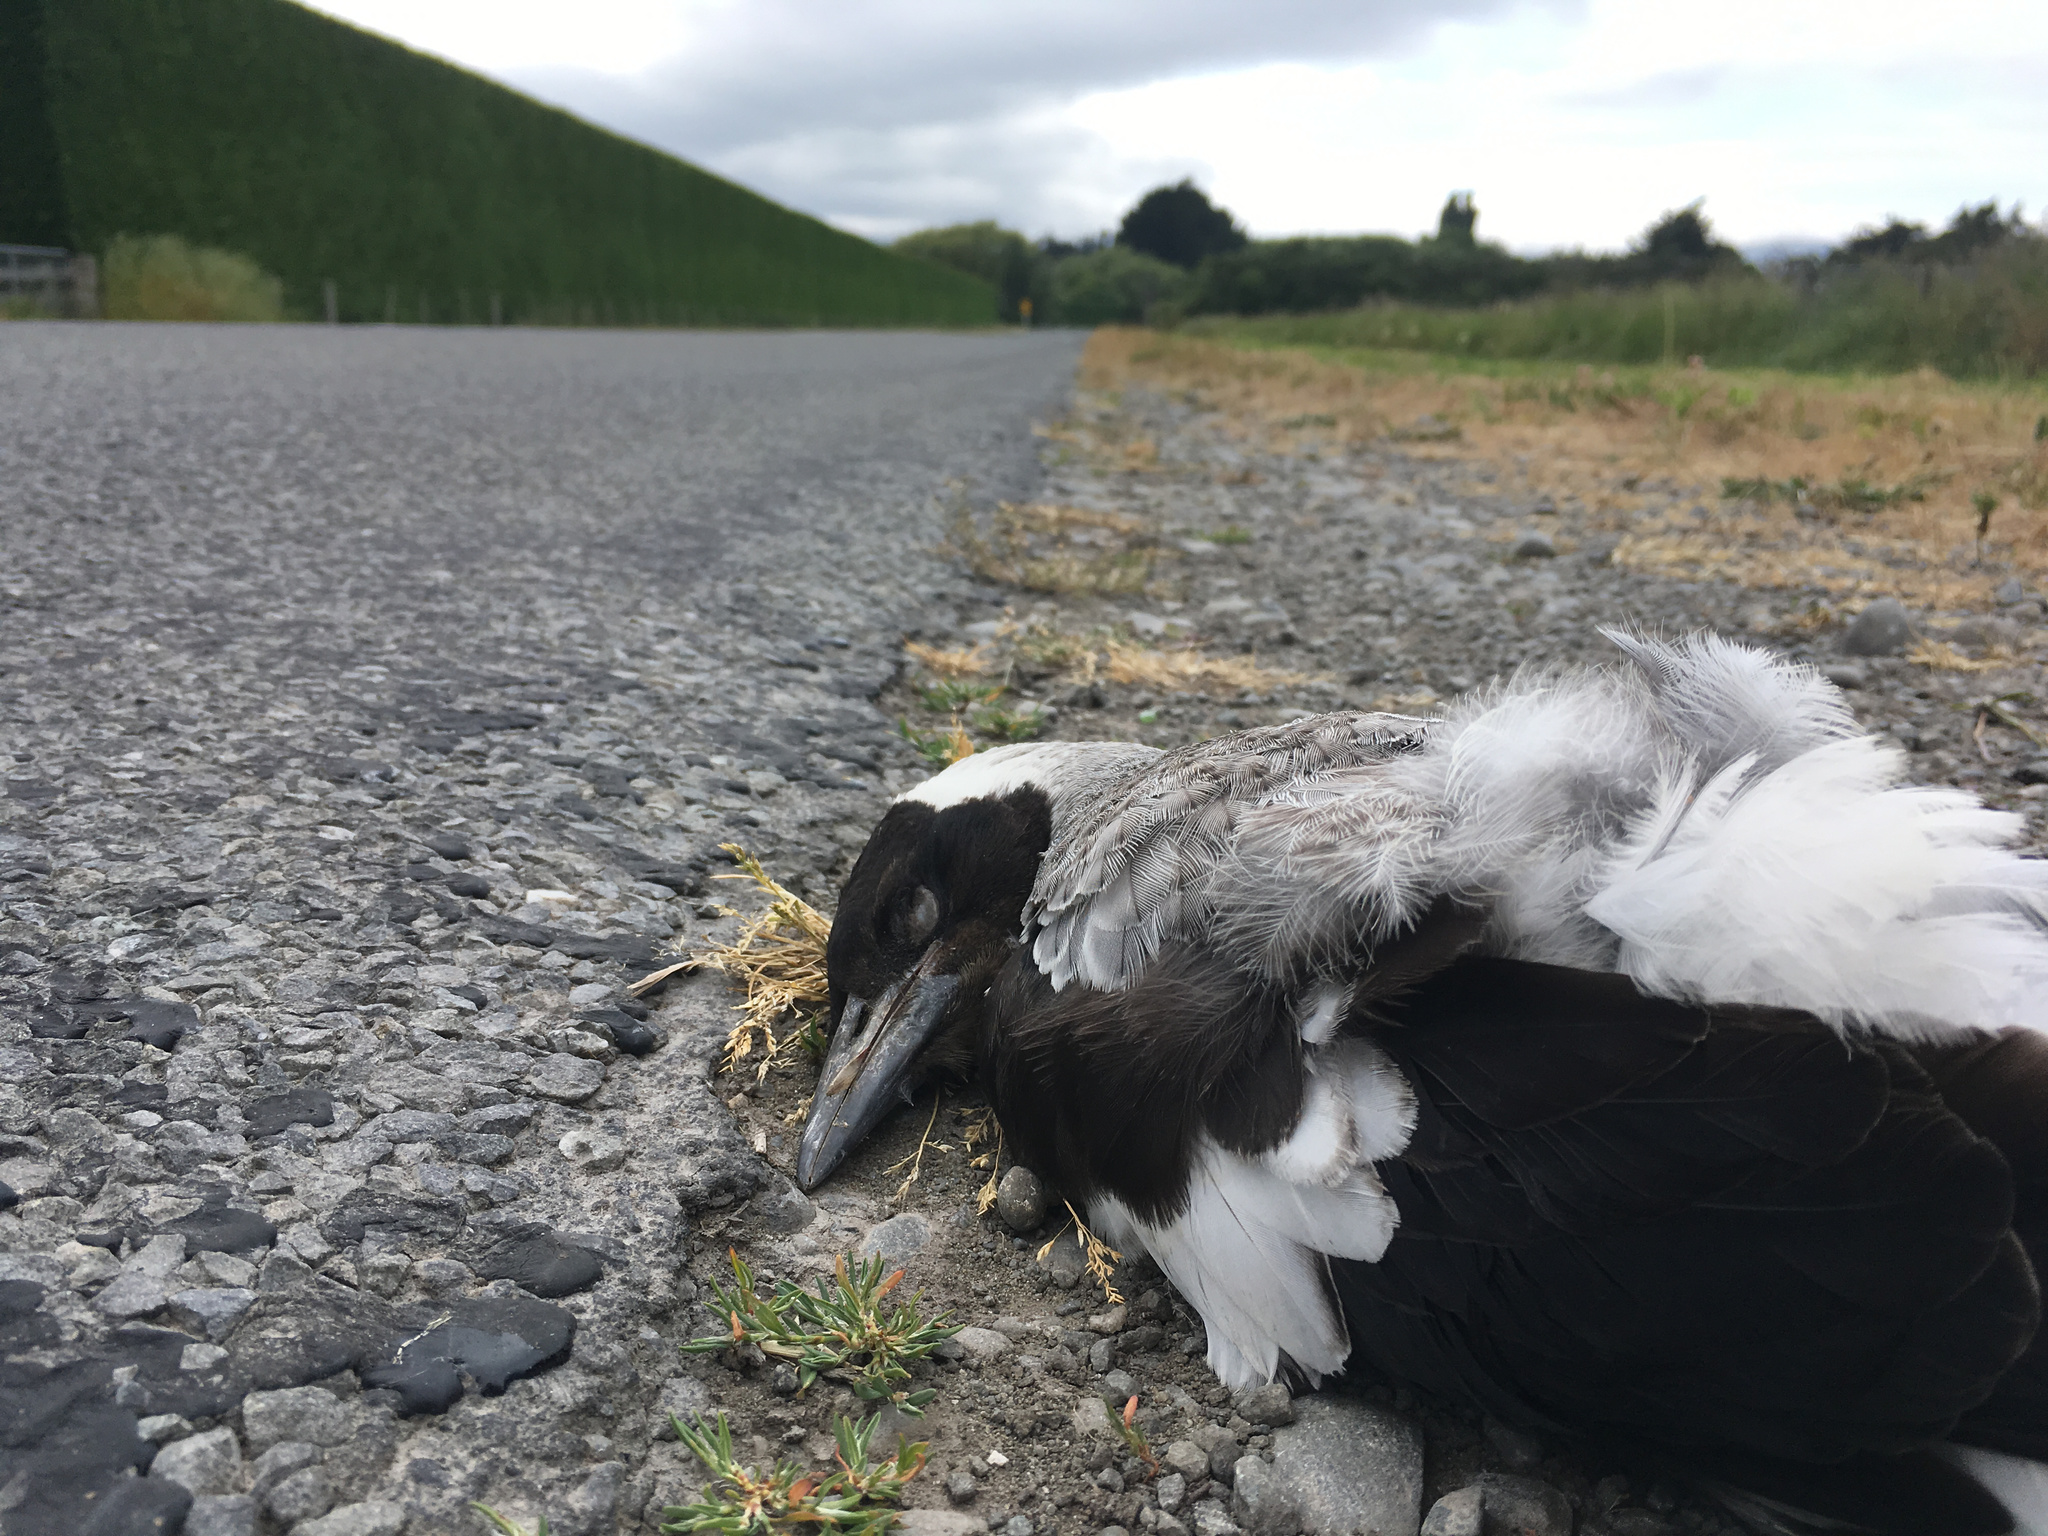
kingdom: Animalia
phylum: Chordata
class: Aves
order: Passeriformes
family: Cracticidae
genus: Gymnorhina
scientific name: Gymnorhina tibicen
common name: Australian magpie
